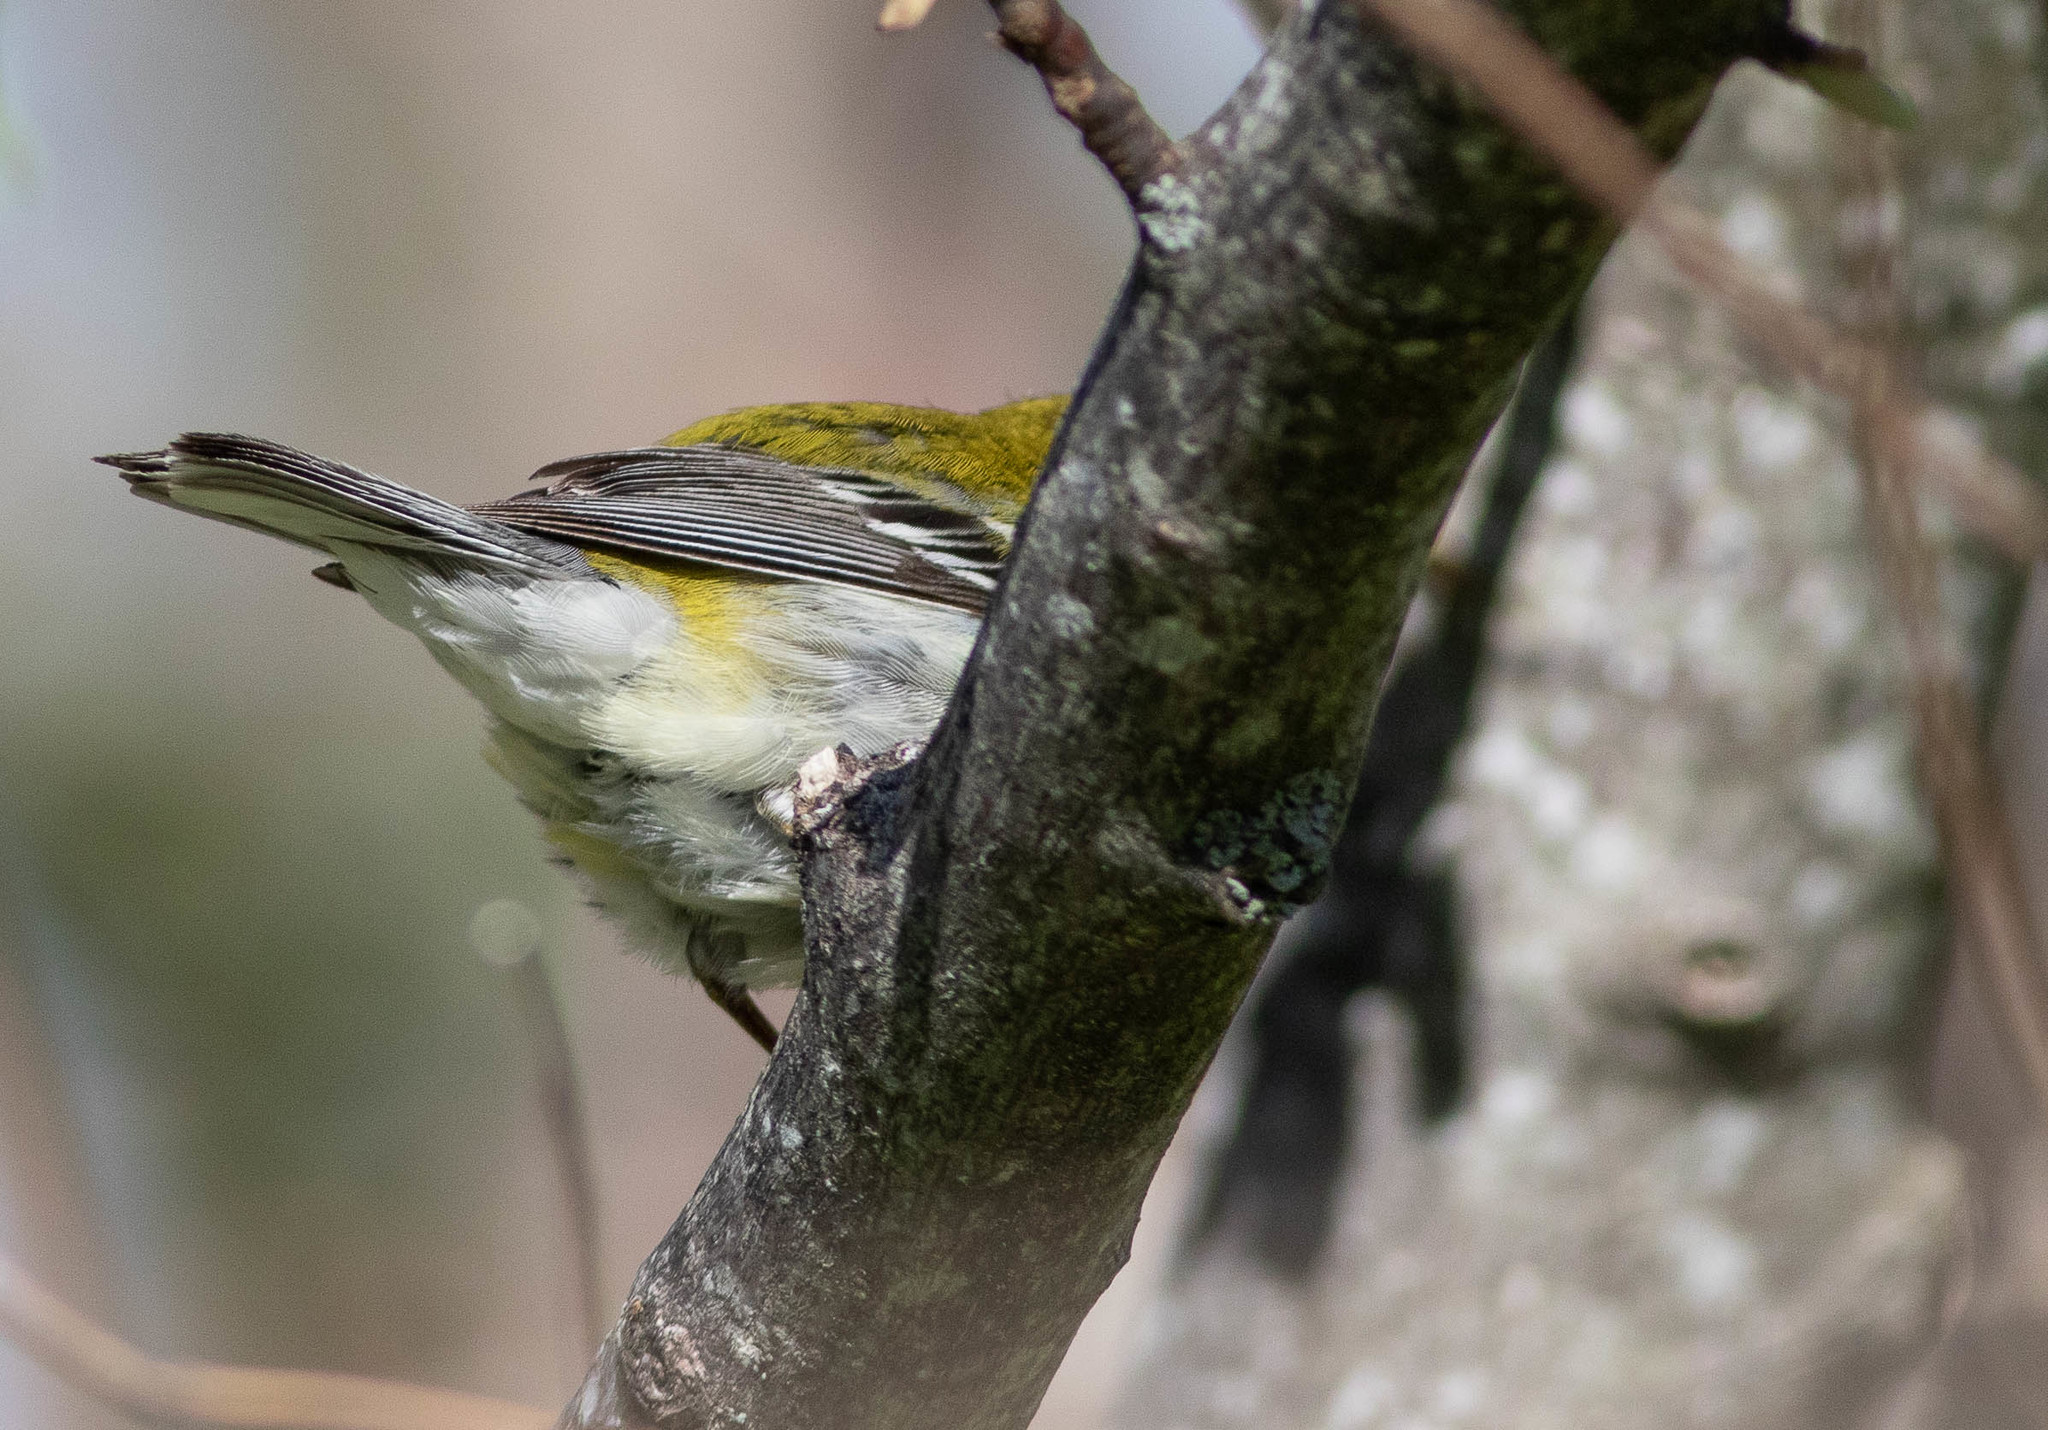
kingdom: Animalia
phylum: Chordata
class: Aves
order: Passeriformes
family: Parulidae
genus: Setophaga
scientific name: Setophaga virens
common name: Black-throated green warbler
